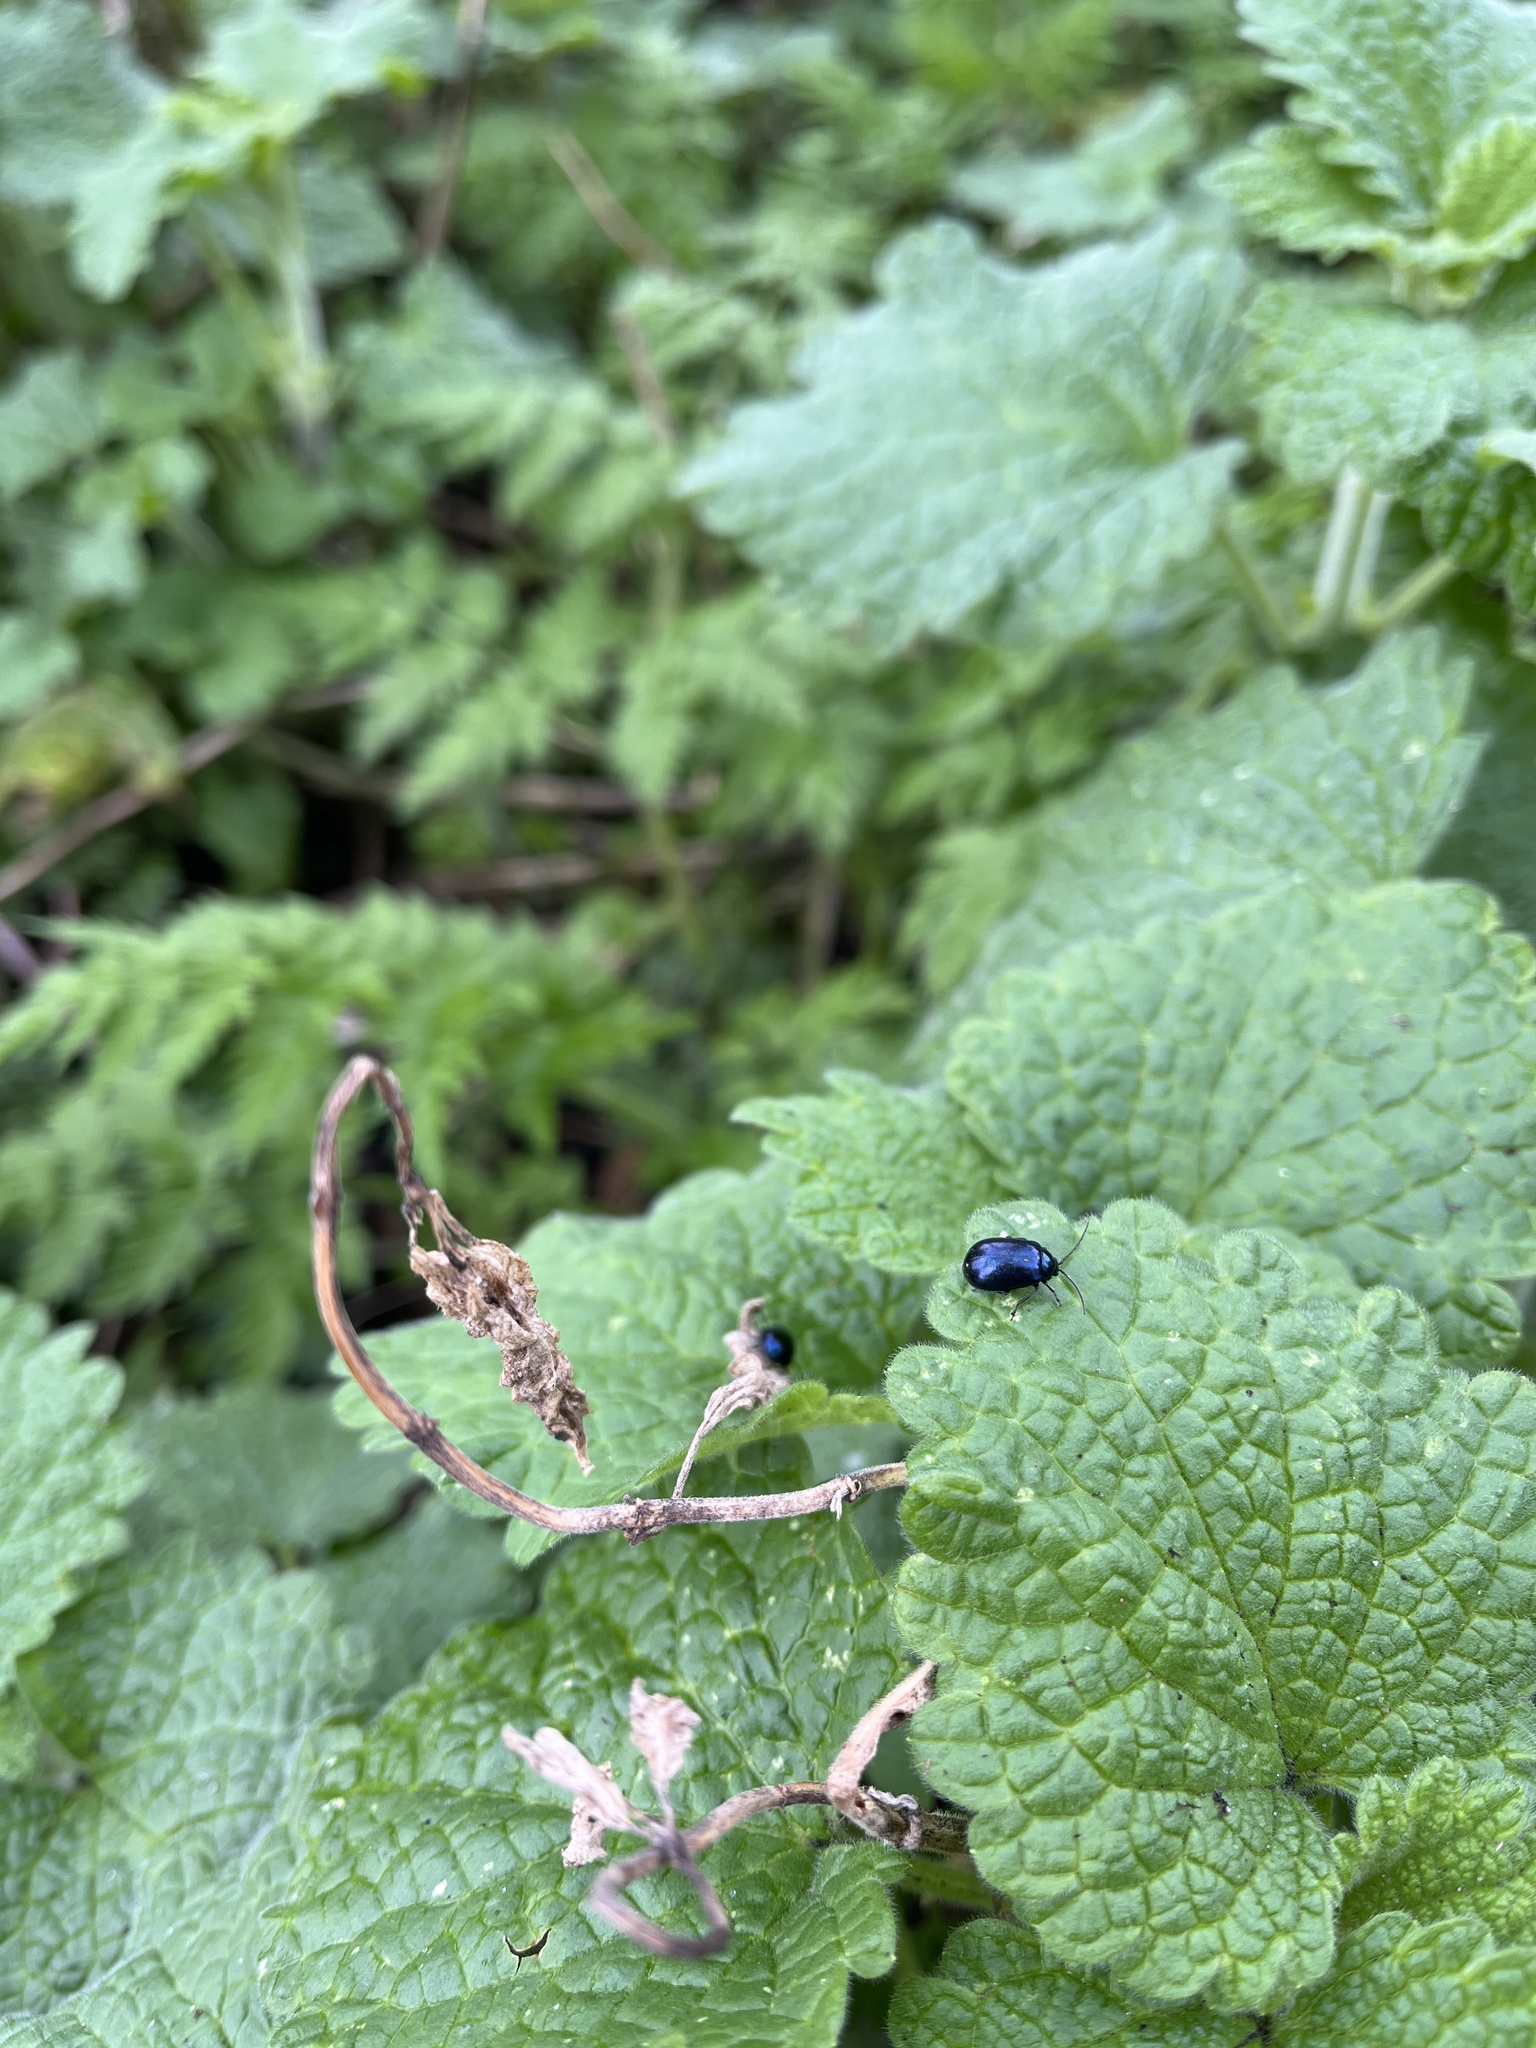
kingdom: Animalia
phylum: Arthropoda
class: Insecta
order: Coleoptera
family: Chrysomelidae
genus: Agelastica
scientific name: Agelastica alni
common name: Alder leaf beetle
